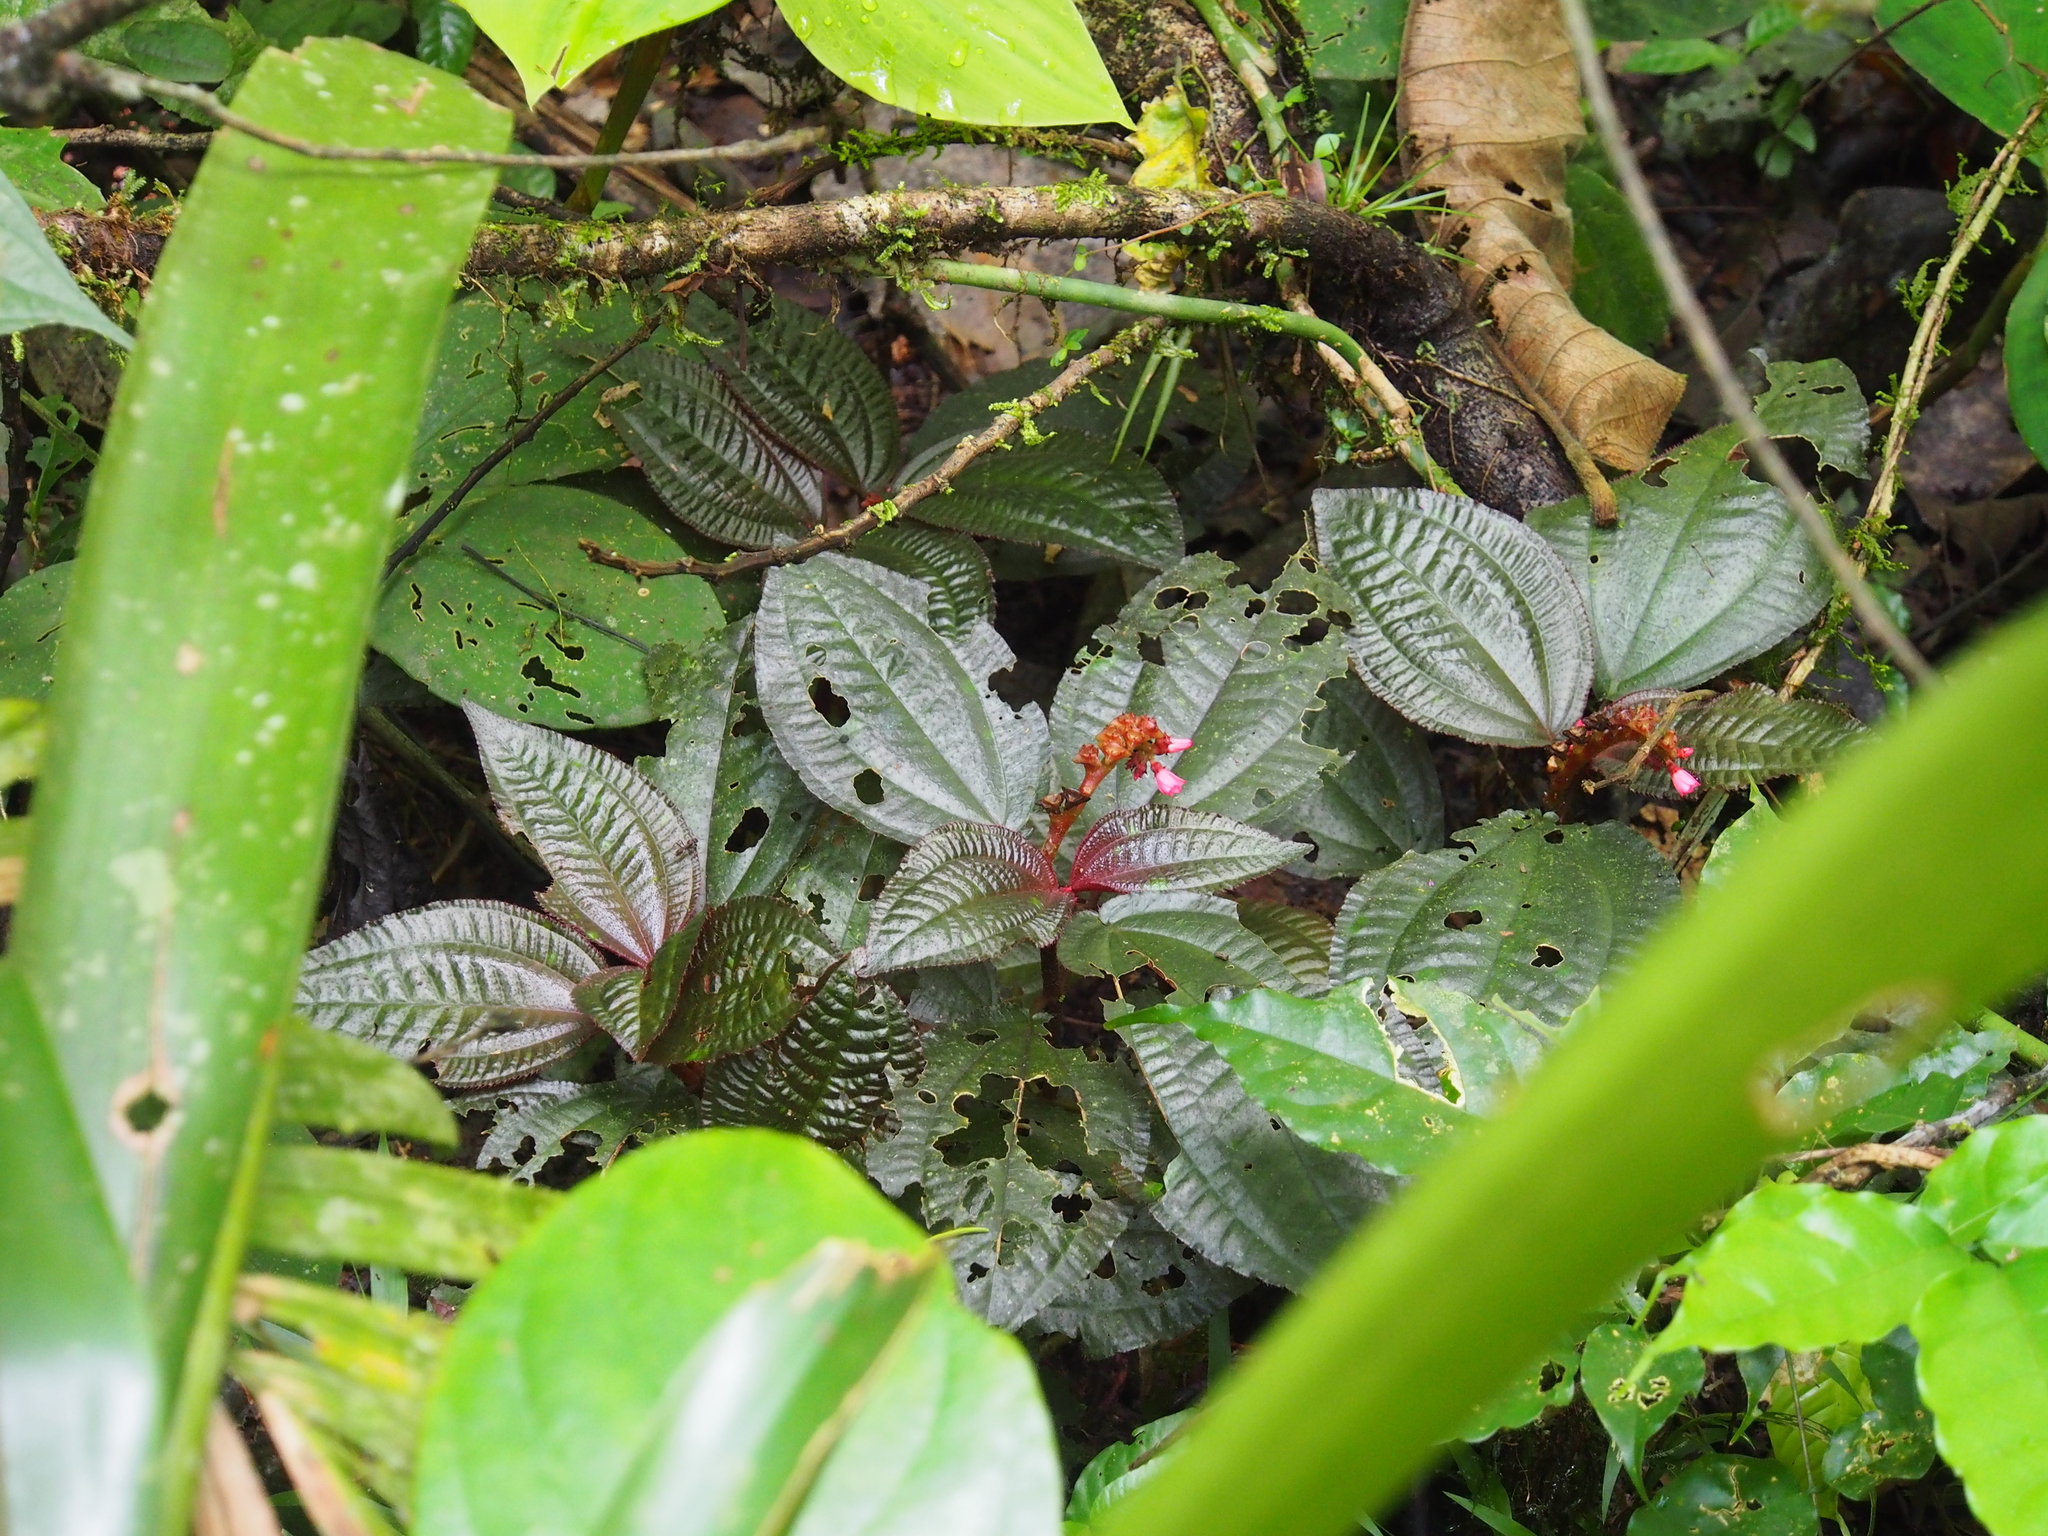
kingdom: Plantae
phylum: Tracheophyta
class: Magnoliopsida
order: Myrtales
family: Melastomataceae
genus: Triolena
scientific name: Triolena hirsuta
